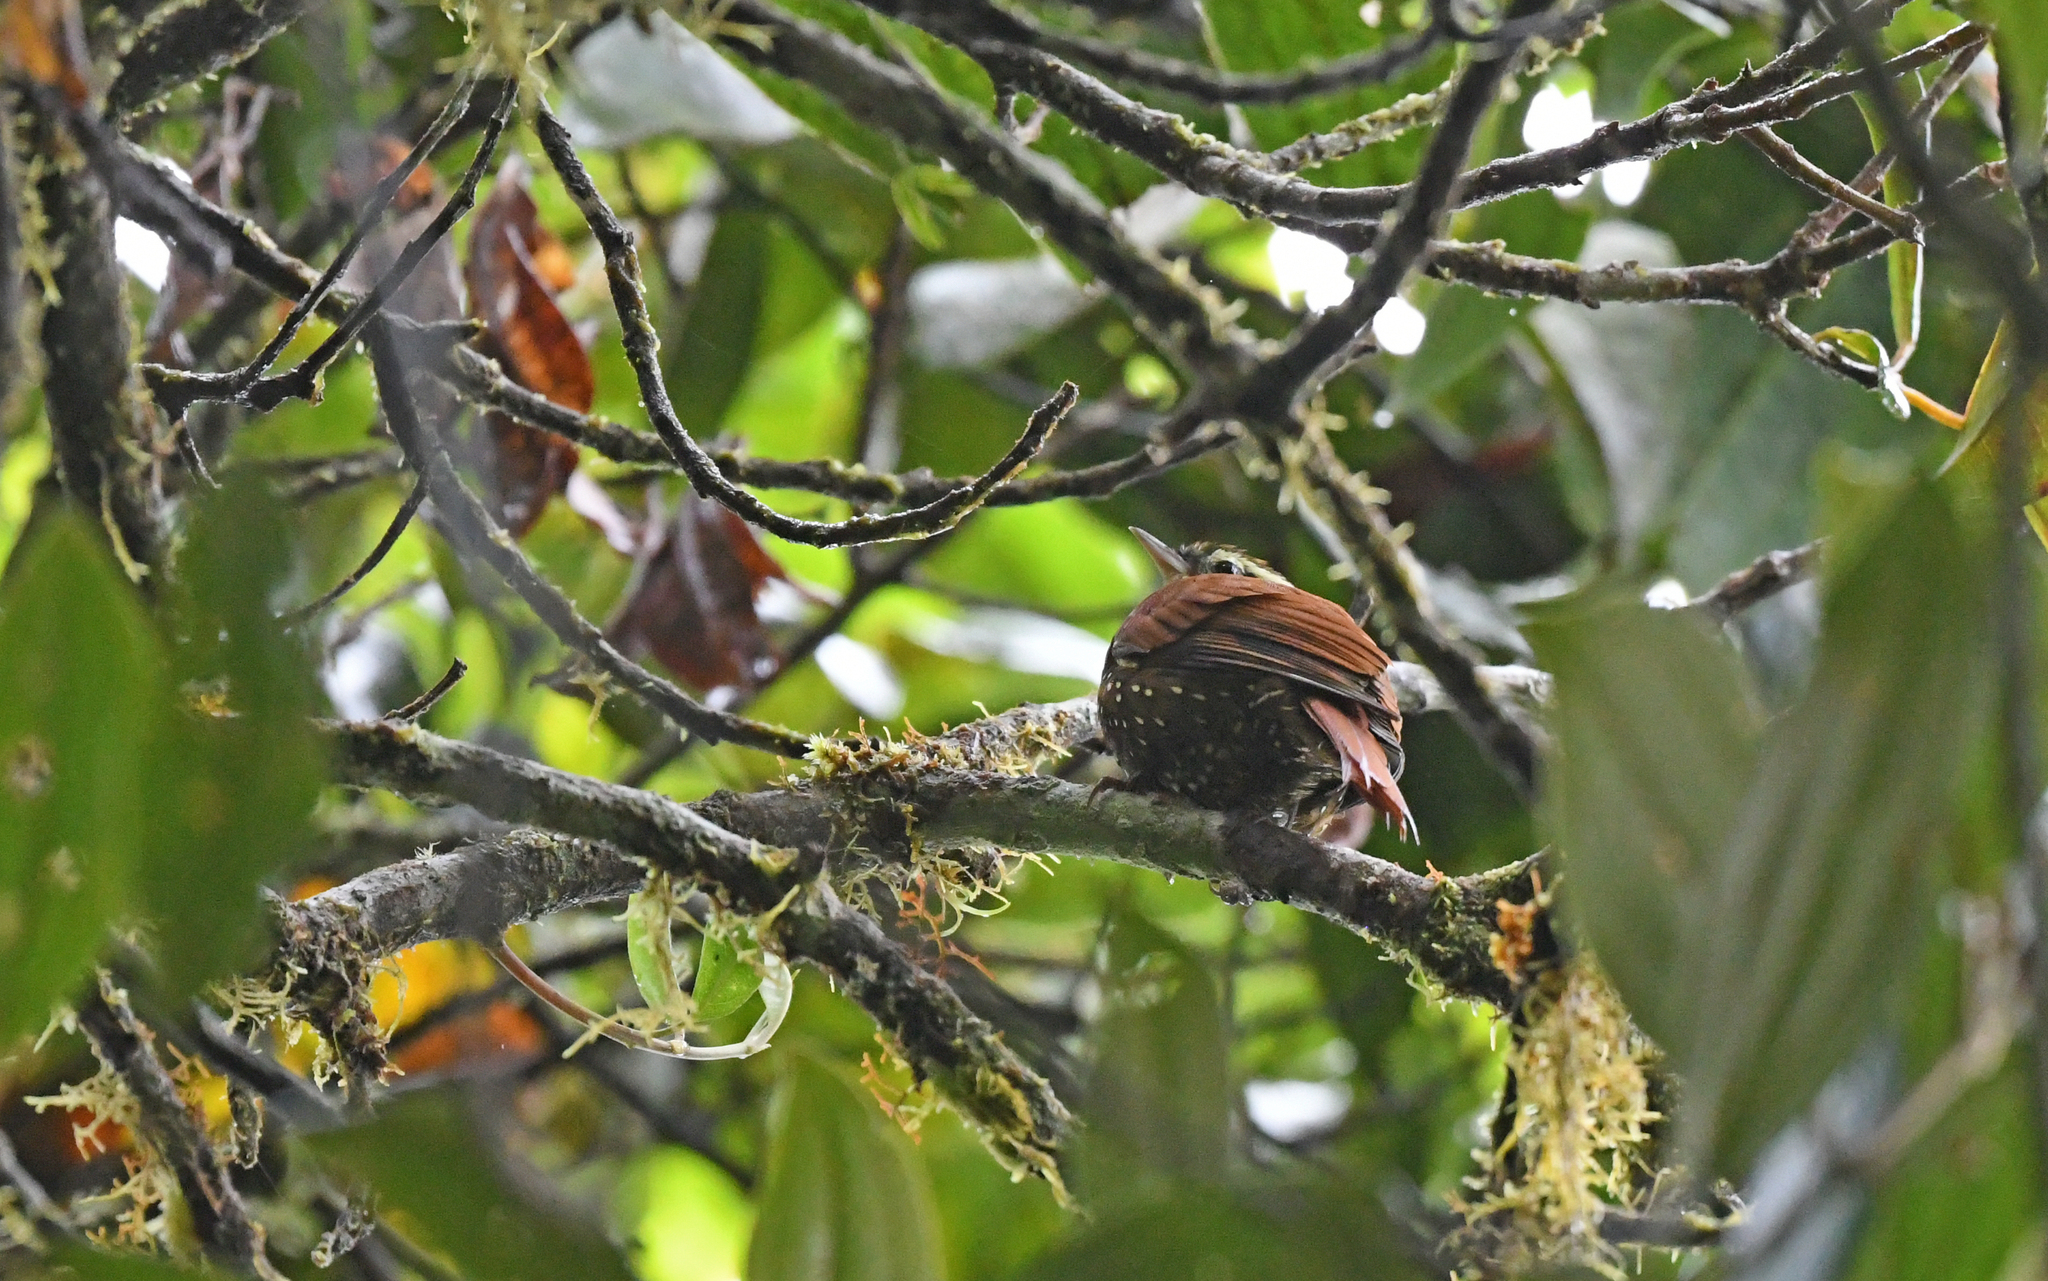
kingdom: Animalia
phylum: Chordata
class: Aves
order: Passeriformes
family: Furnariidae
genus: Premnoplex
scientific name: Premnoplex brunnescens
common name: Spotted barbtail
